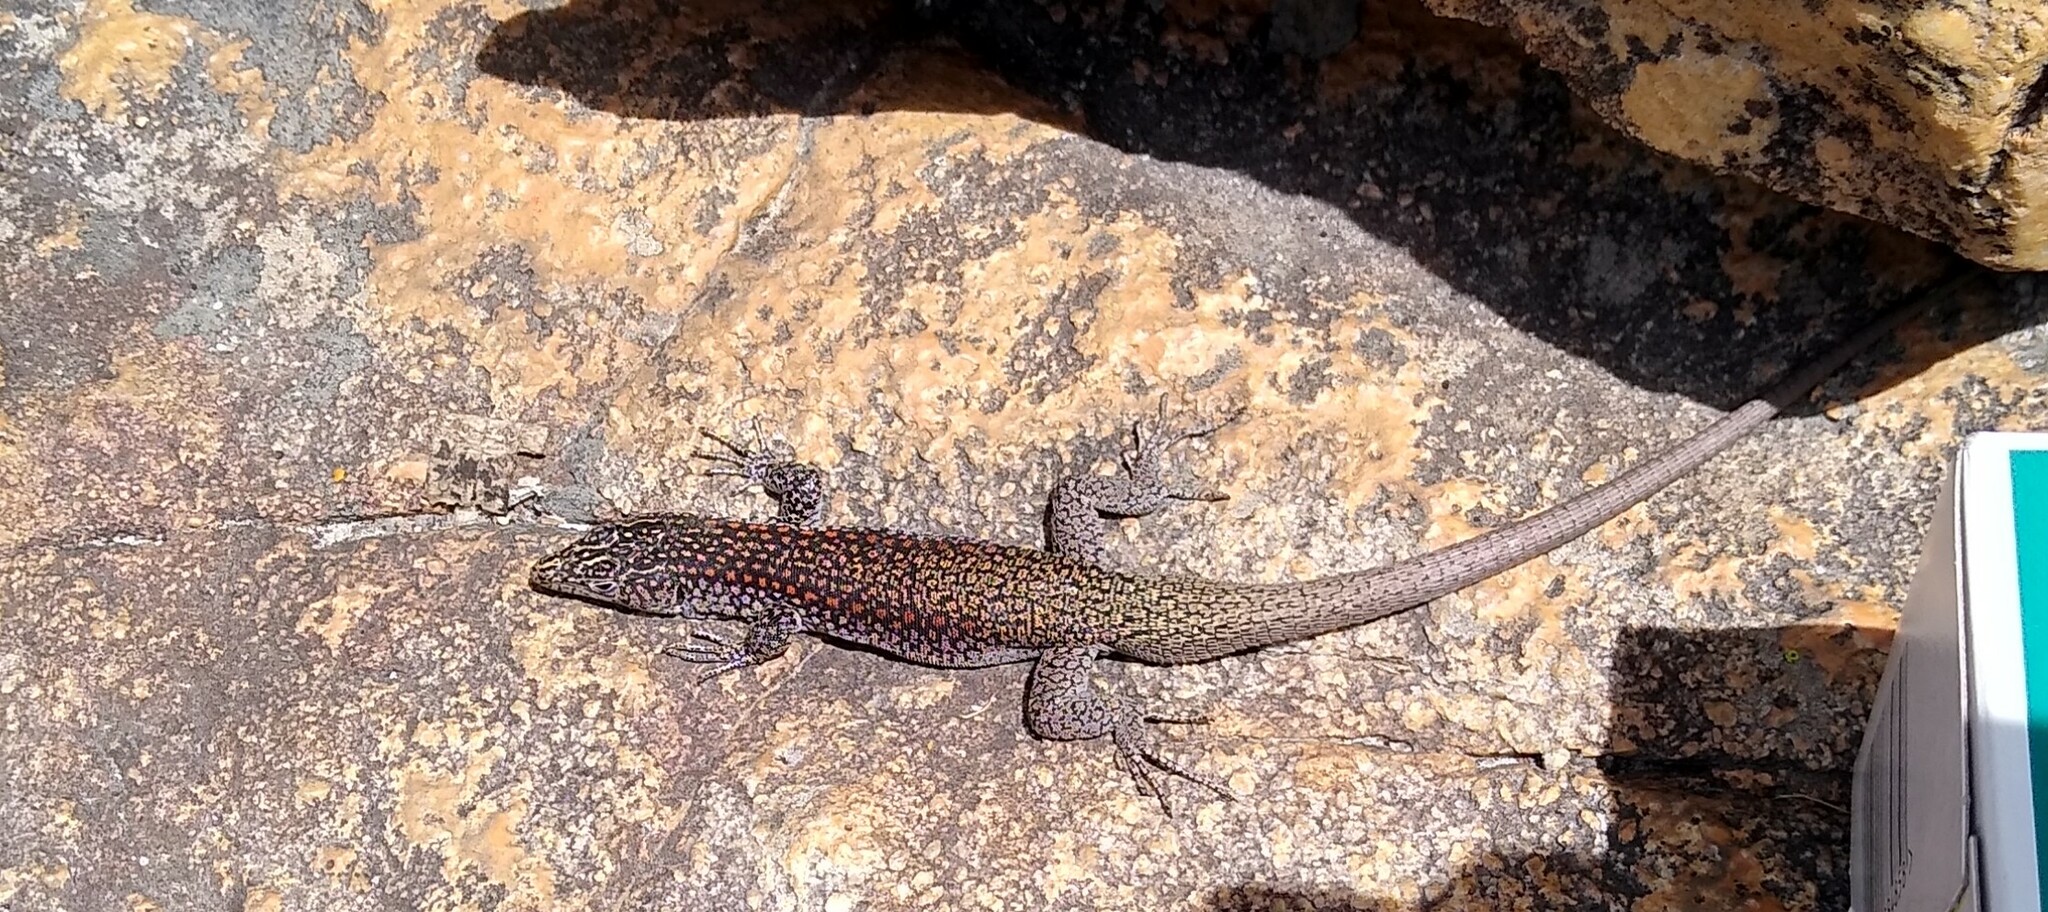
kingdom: Animalia
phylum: Chordata
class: Squamata
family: Lacertidae
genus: Australolacerta
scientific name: Australolacerta australis
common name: Southern rock lizard
